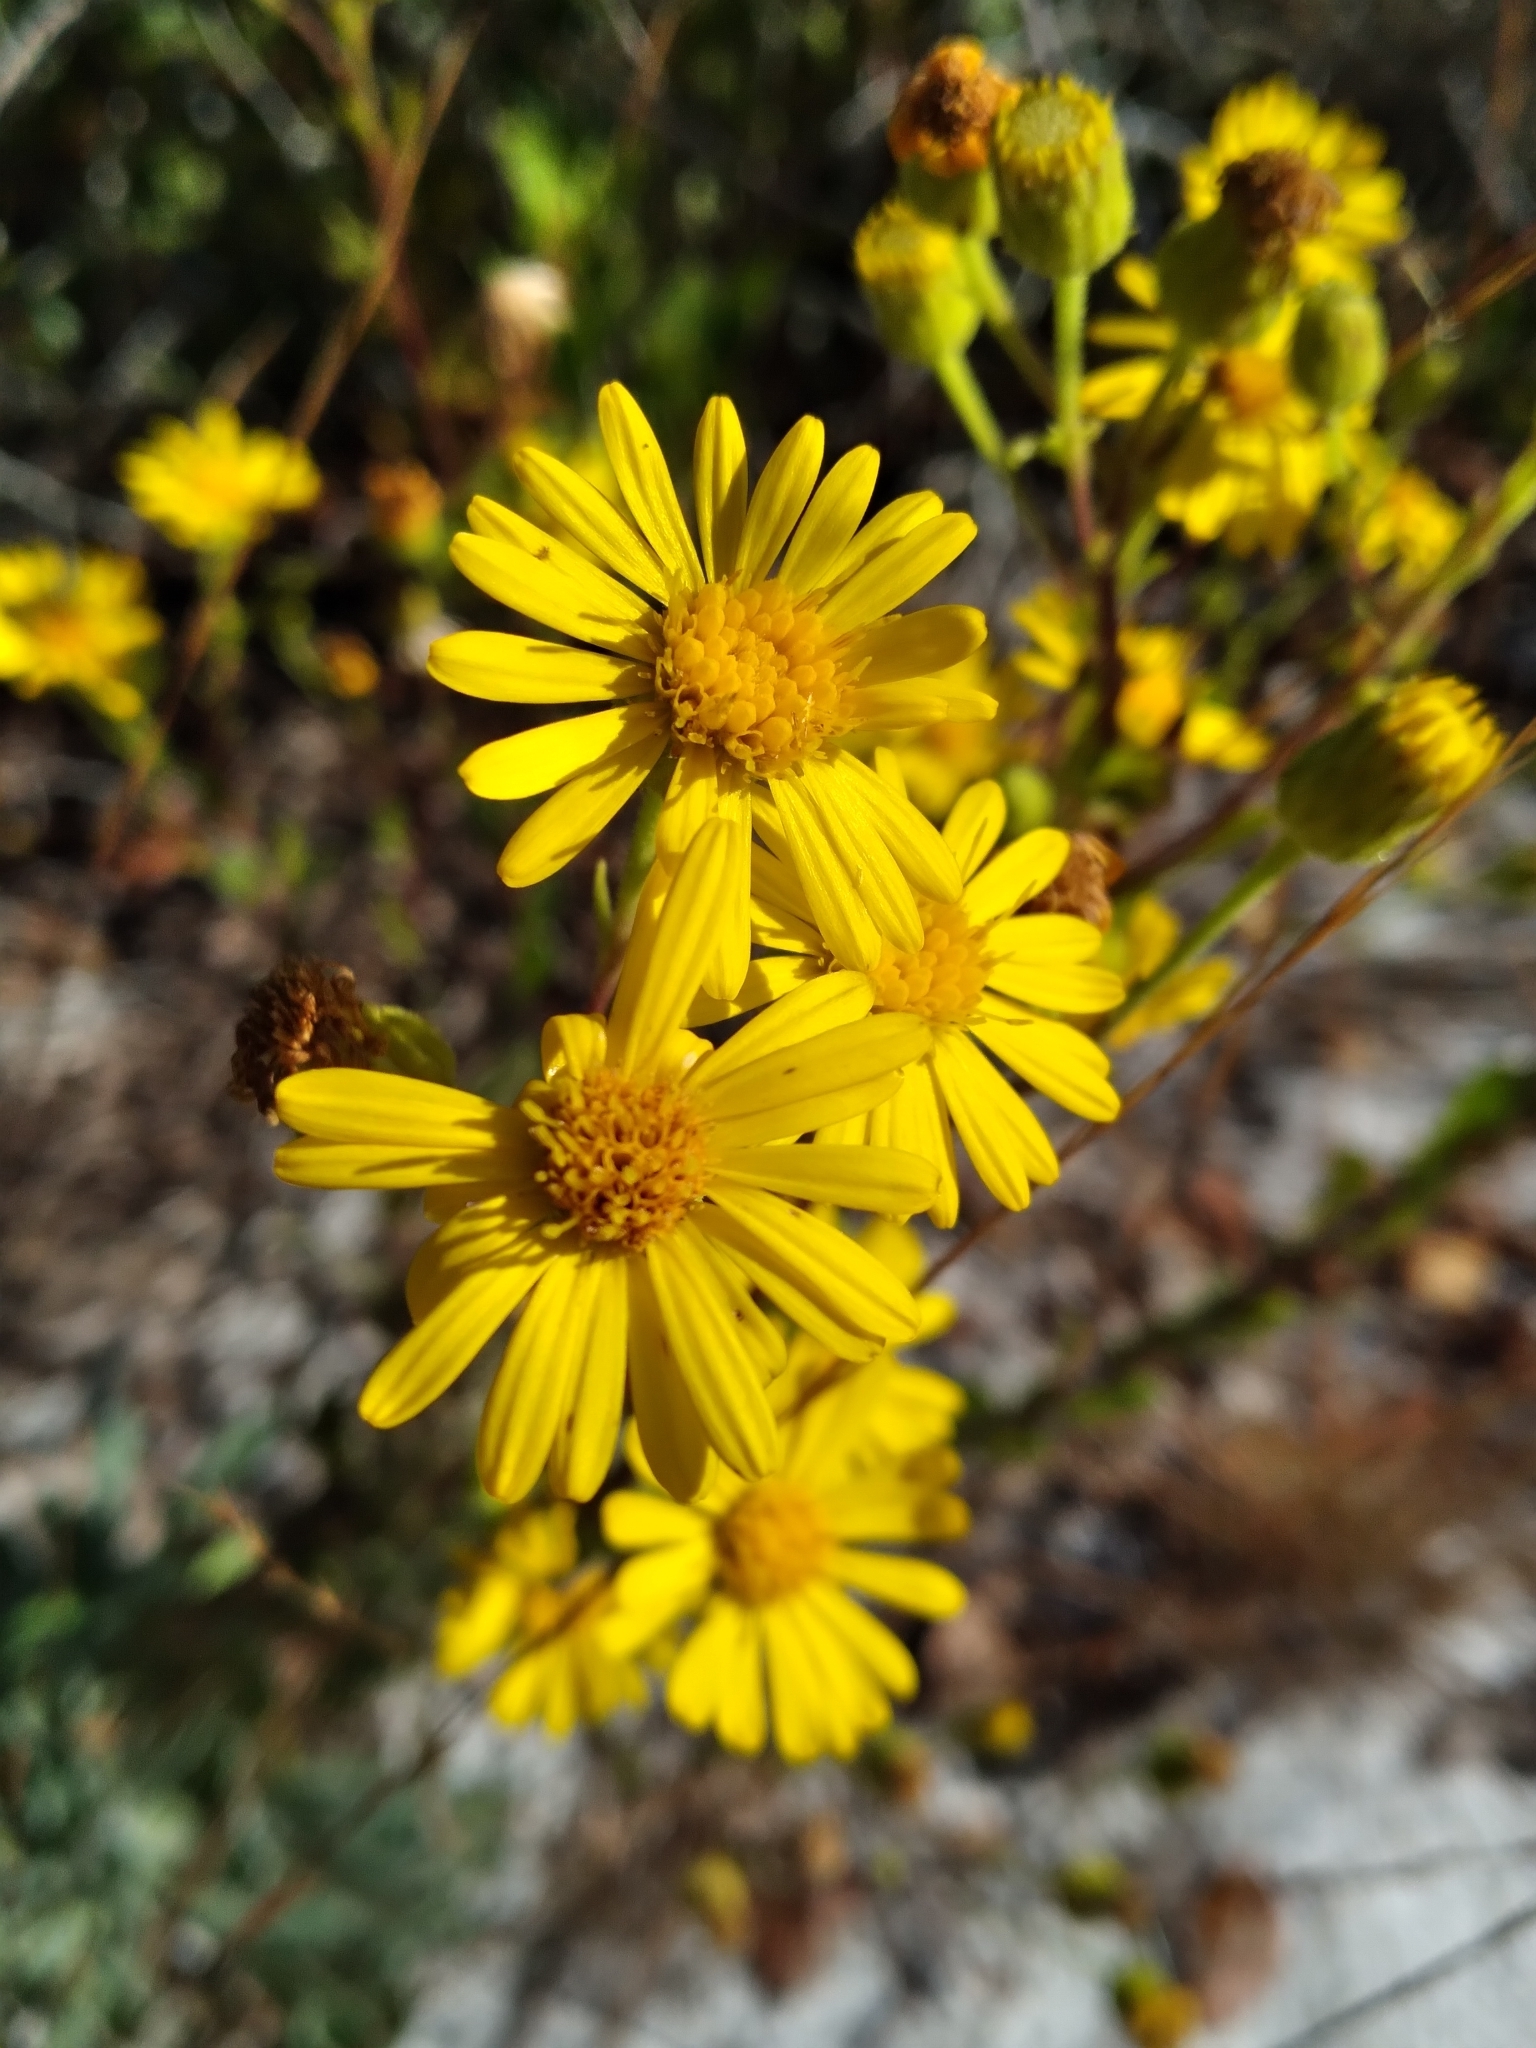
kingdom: Plantae
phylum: Tracheophyta
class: Magnoliopsida
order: Asterales
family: Asteraceae
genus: Chrysopsis
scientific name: Chrysopsis floridana
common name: Florida golden-aster
